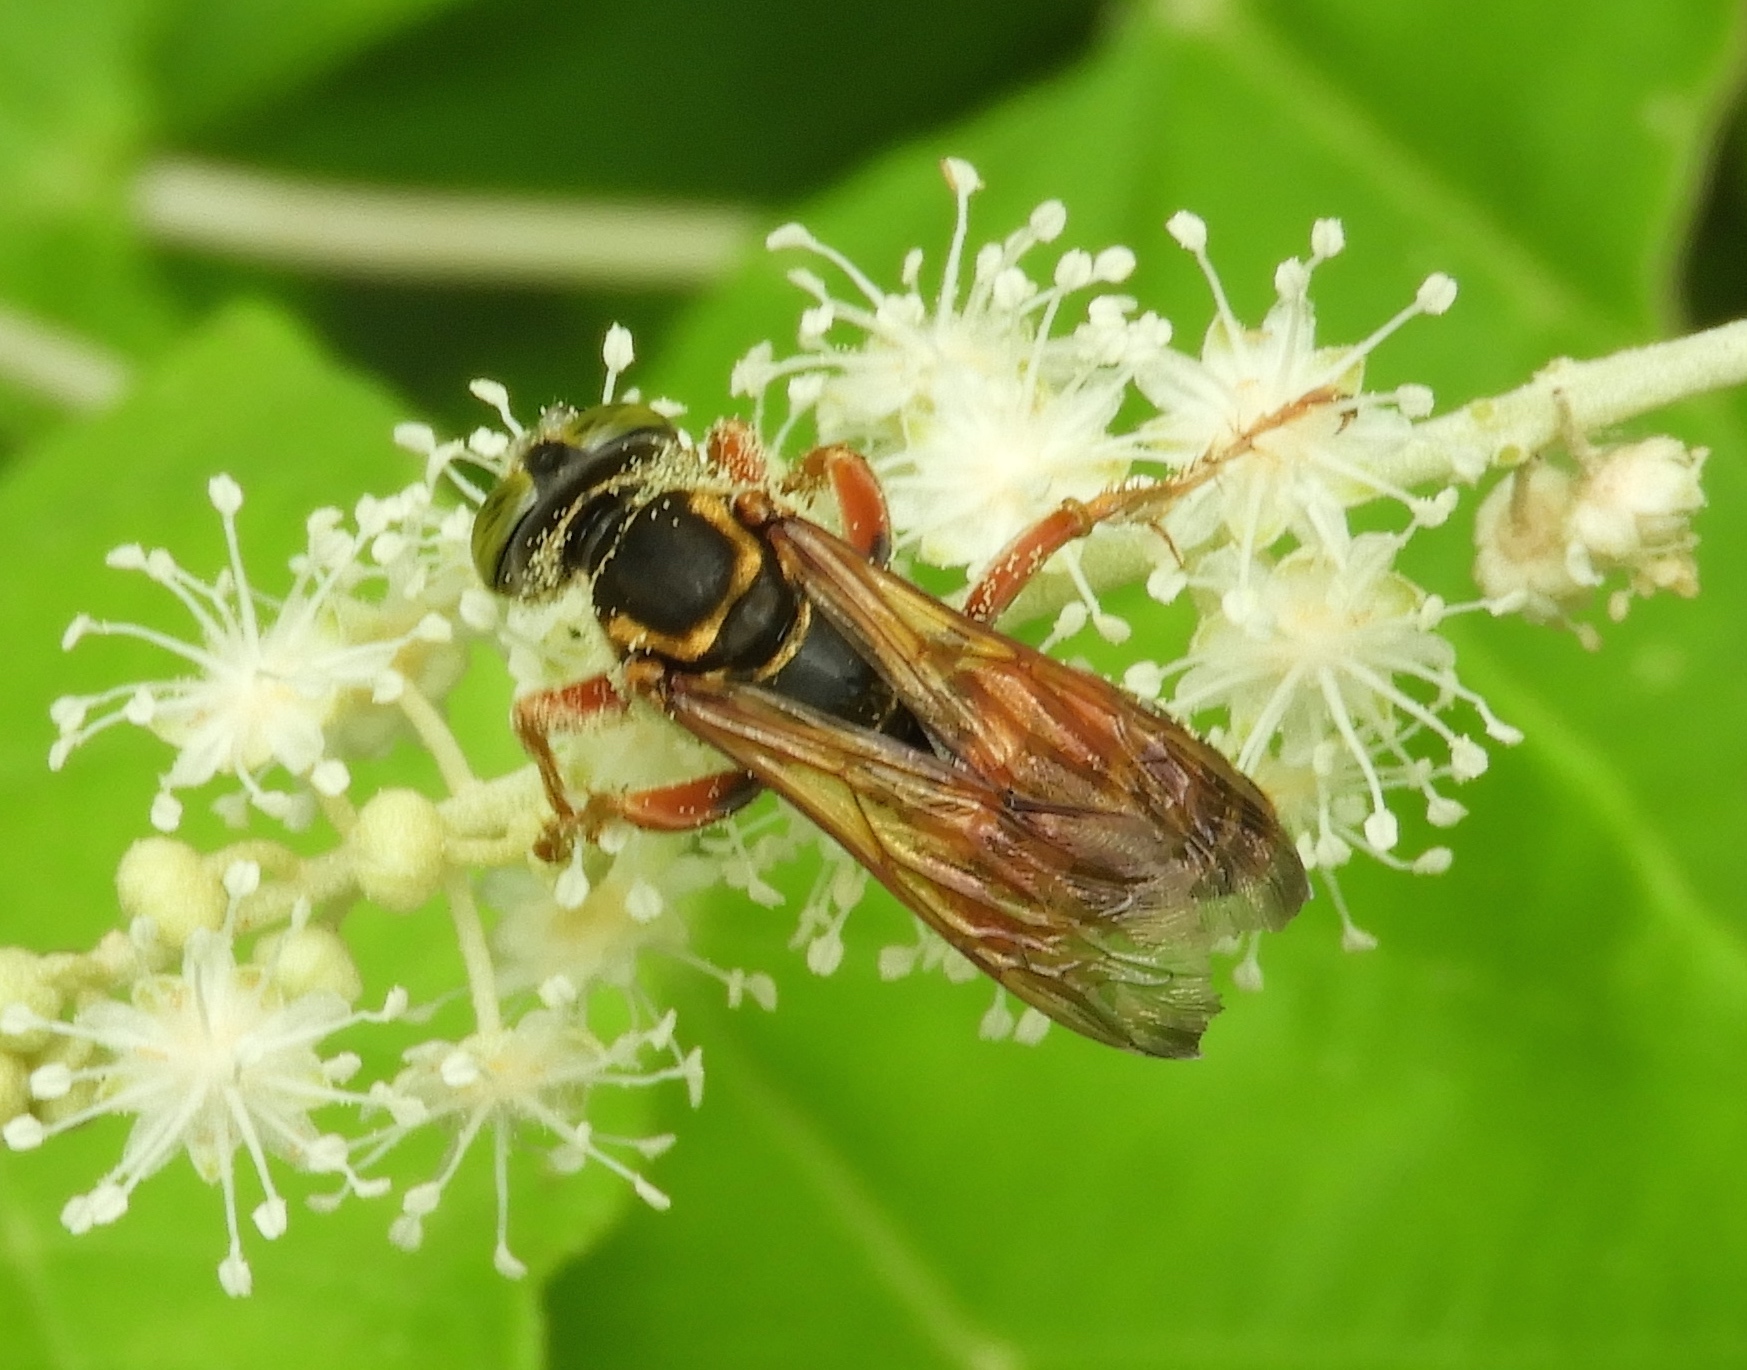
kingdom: Animalia
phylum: Arthropoda
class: Insecta
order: Hymenoptera
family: Crabronidae
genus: Tachytes
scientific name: Tachytes
